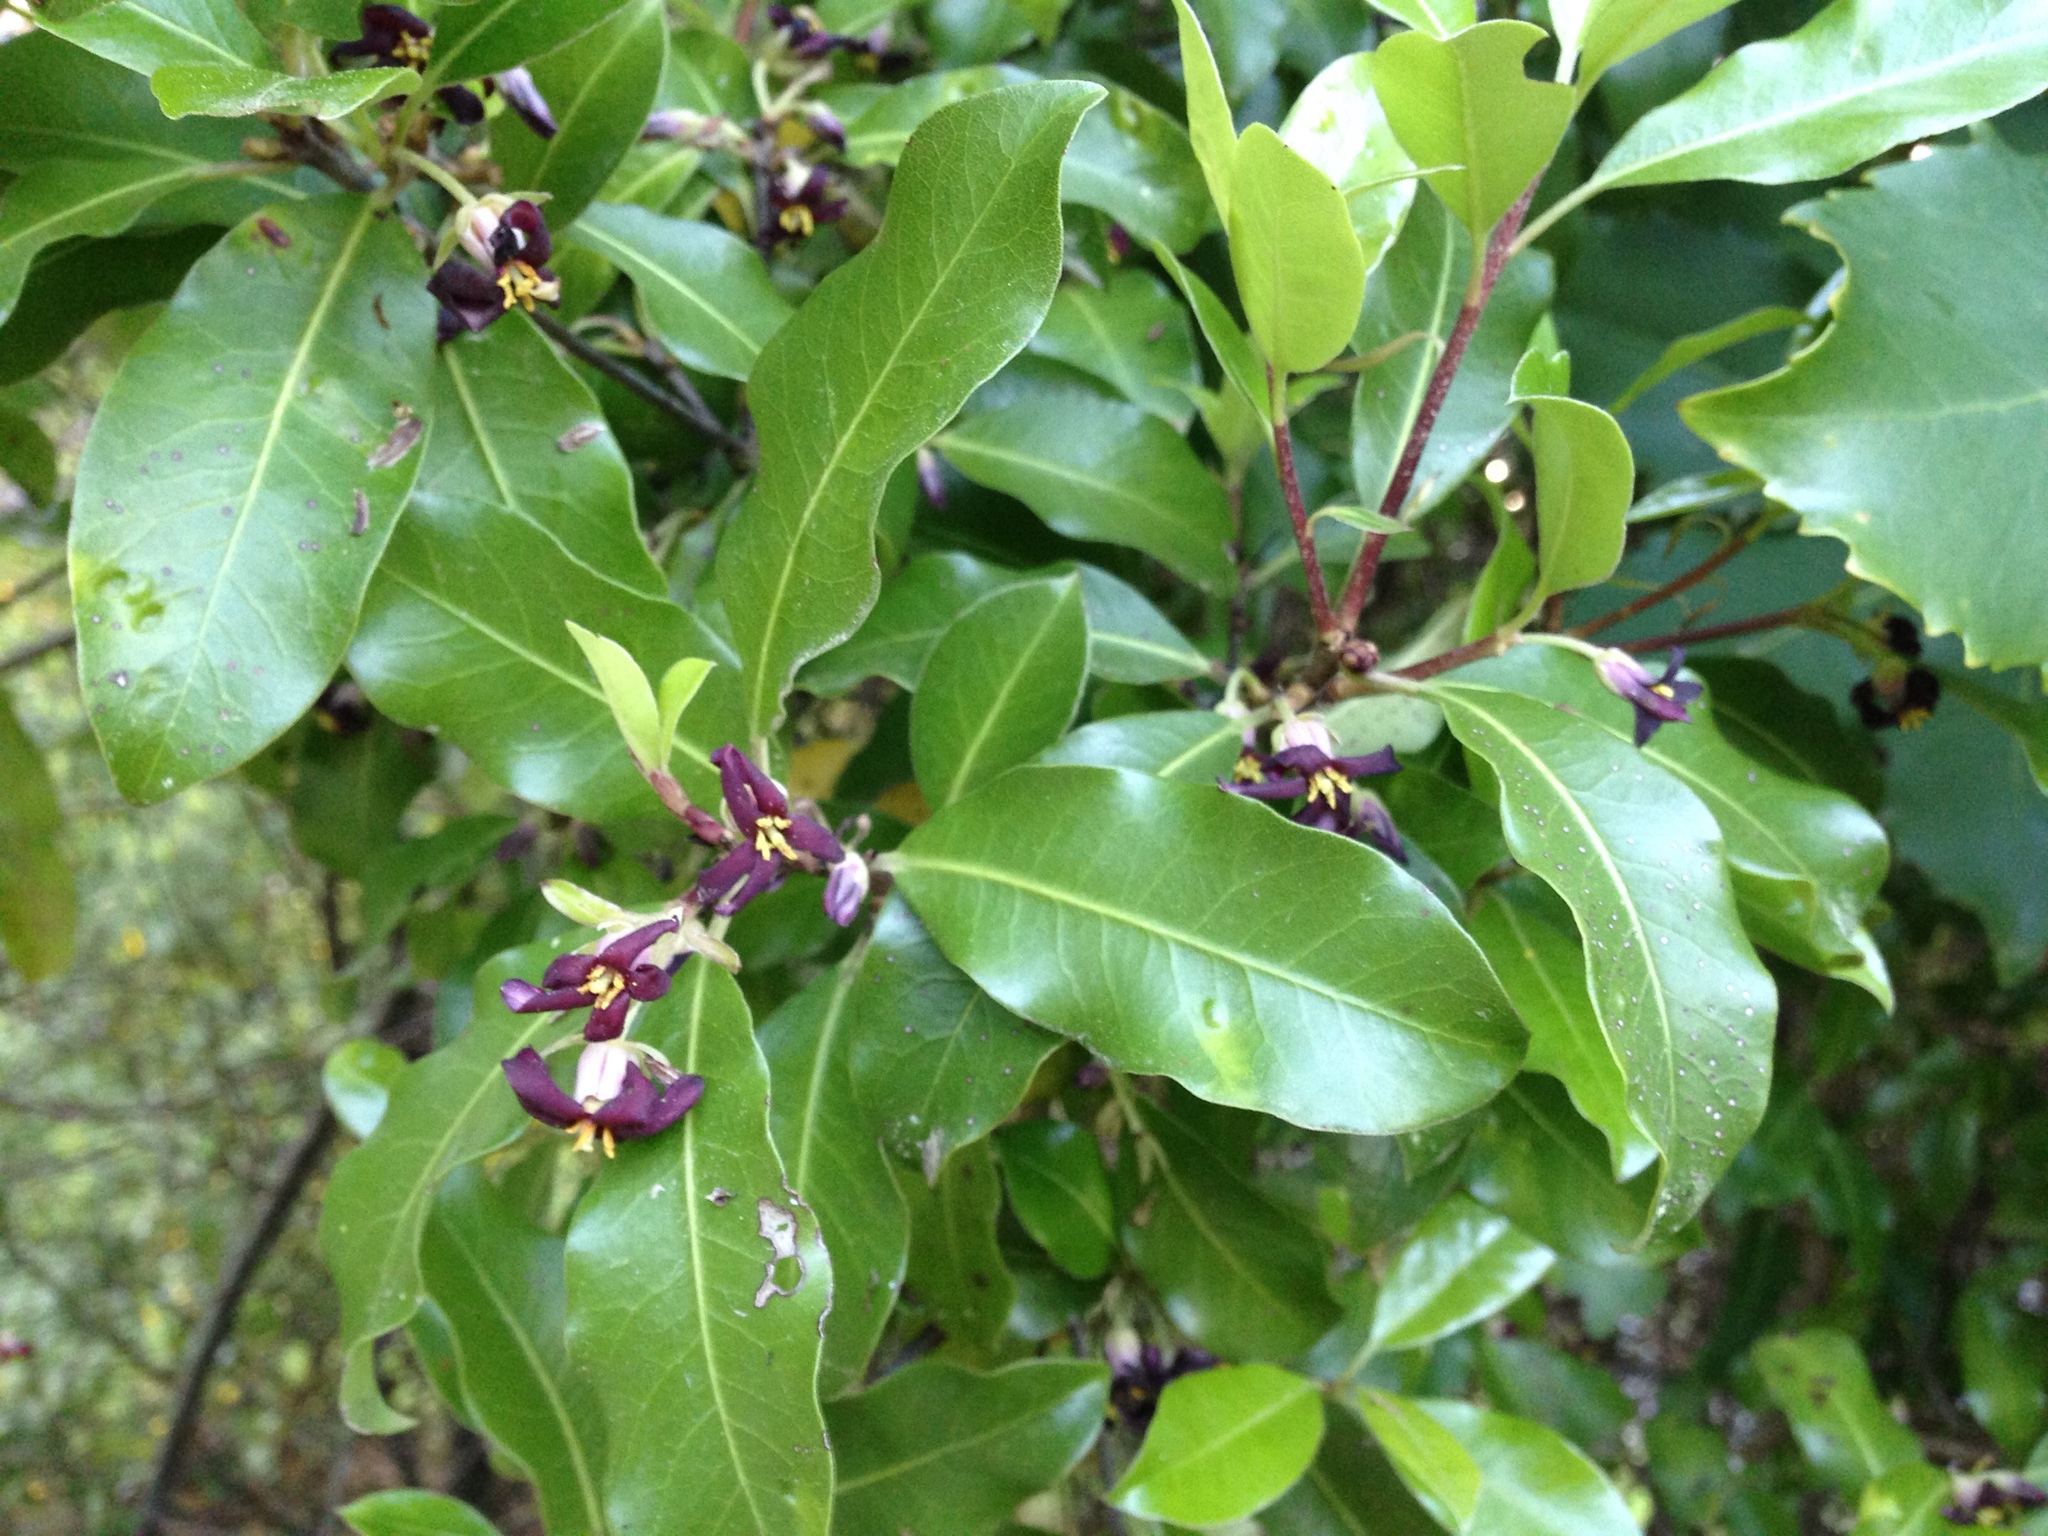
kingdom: Plantae
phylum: Tracheophyta
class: Magnoliopsida
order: Apiales
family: Pittosporaceae
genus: Pittosporum
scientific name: Pittosporum tenuifolium
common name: Kohuhu
